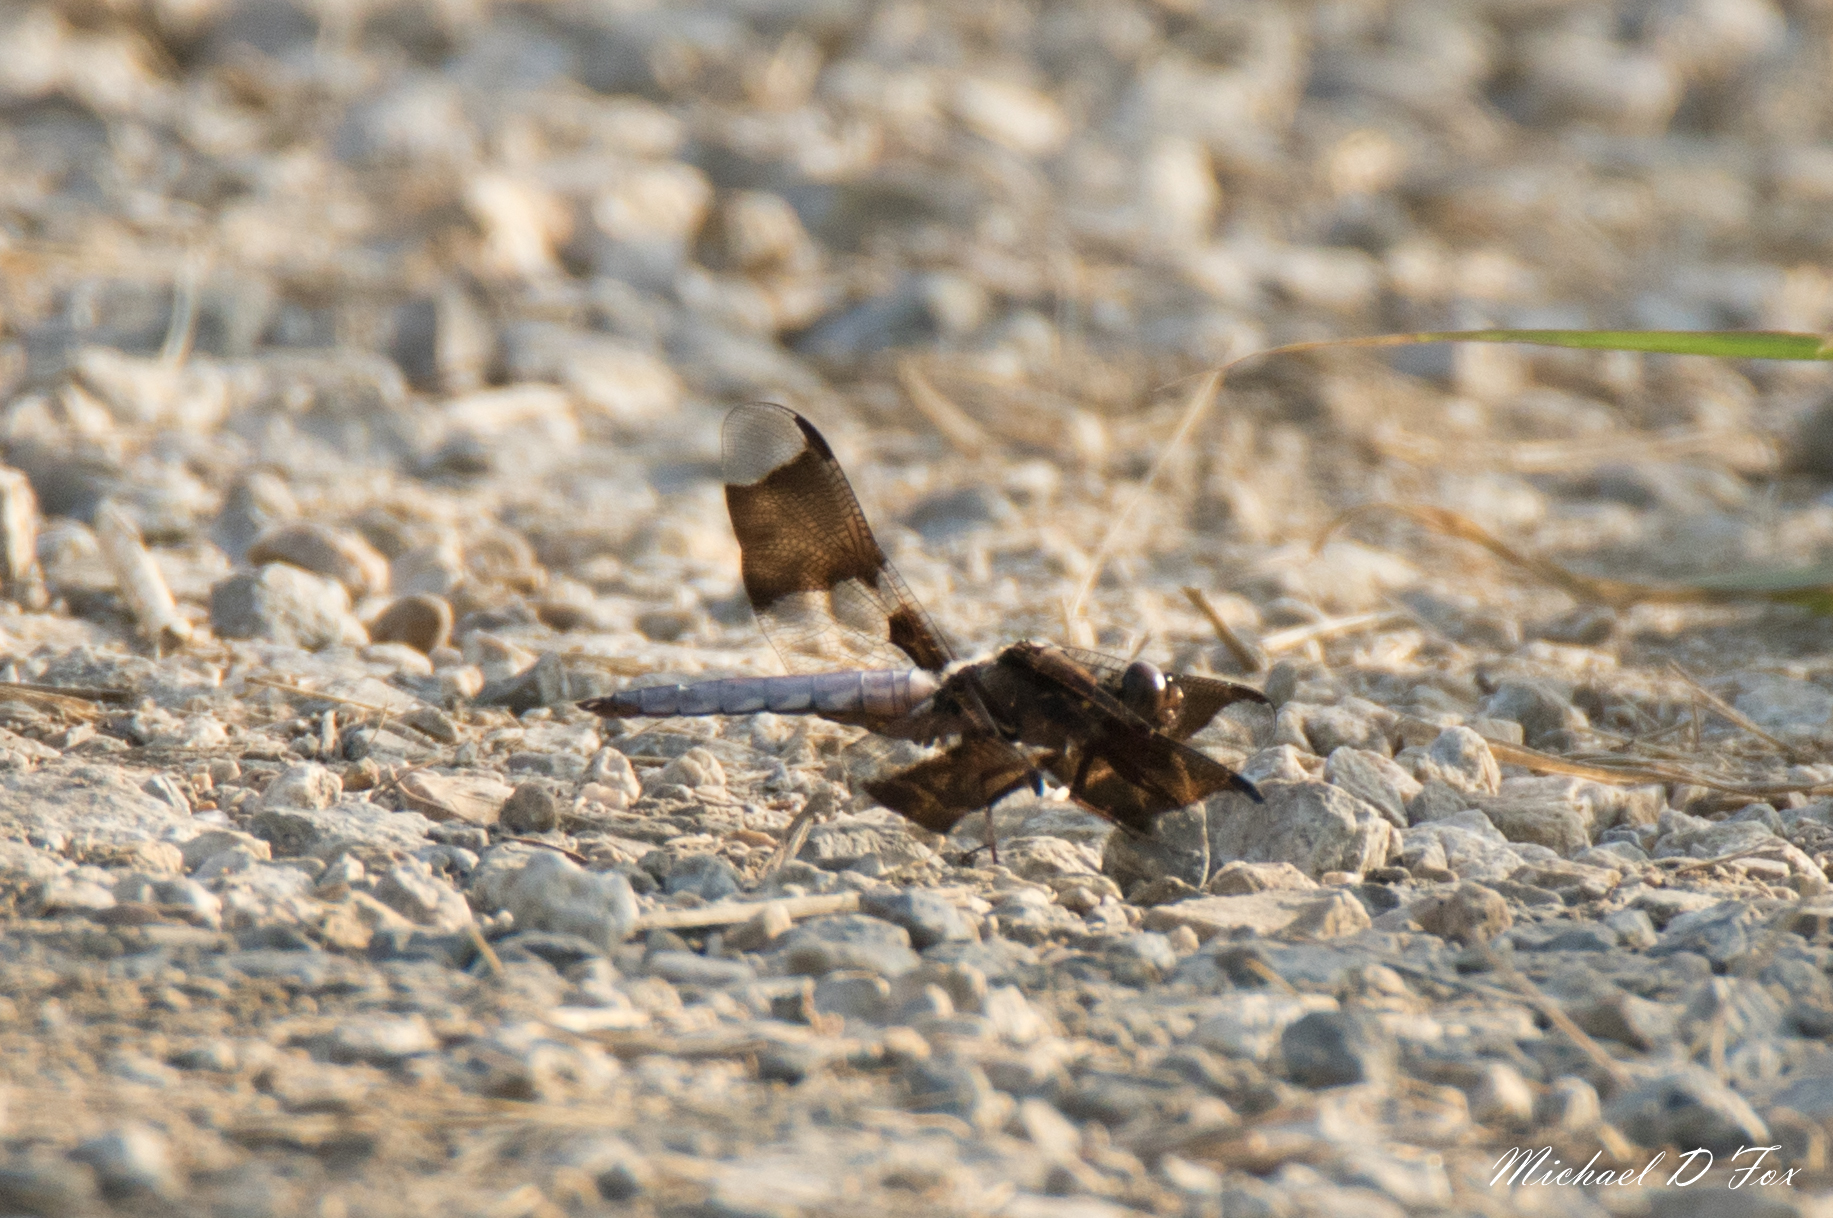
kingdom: Animalia
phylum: Arthropoda
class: Insecta
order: Odonata
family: Libellulidae
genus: Plathemis
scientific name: Plathemis lydia
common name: Common whitetail
